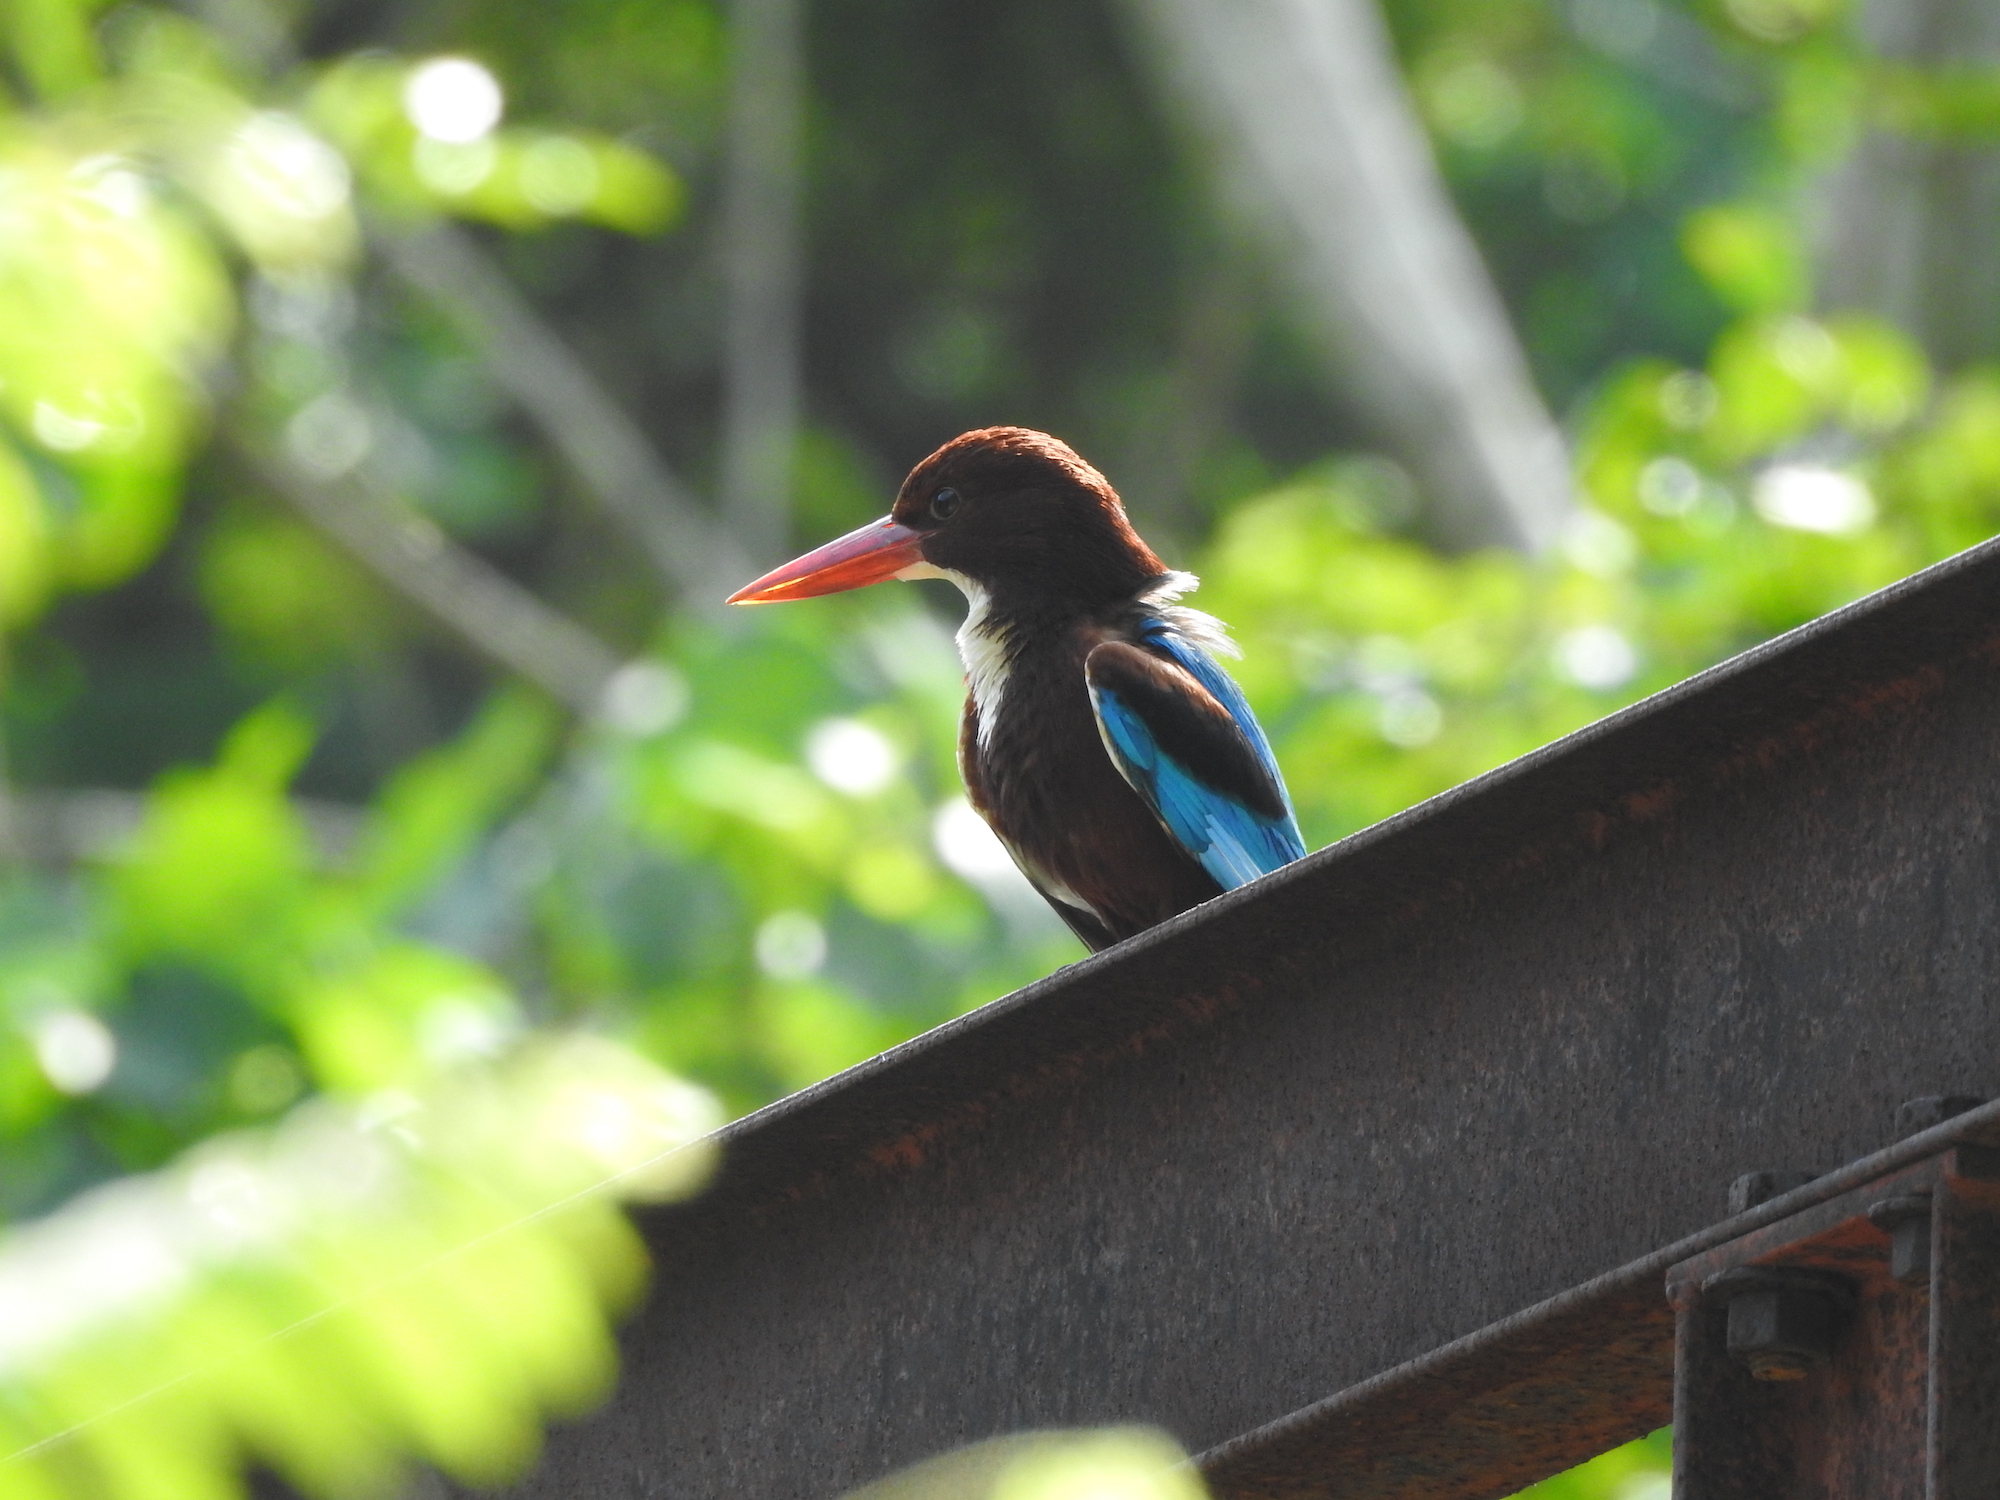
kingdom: Animalia
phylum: Chordata
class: Aves
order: Coraciiformes
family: Alcedinidae
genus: Halcyon
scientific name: Halcyon smyrnensis
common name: White-throated kingfisher
